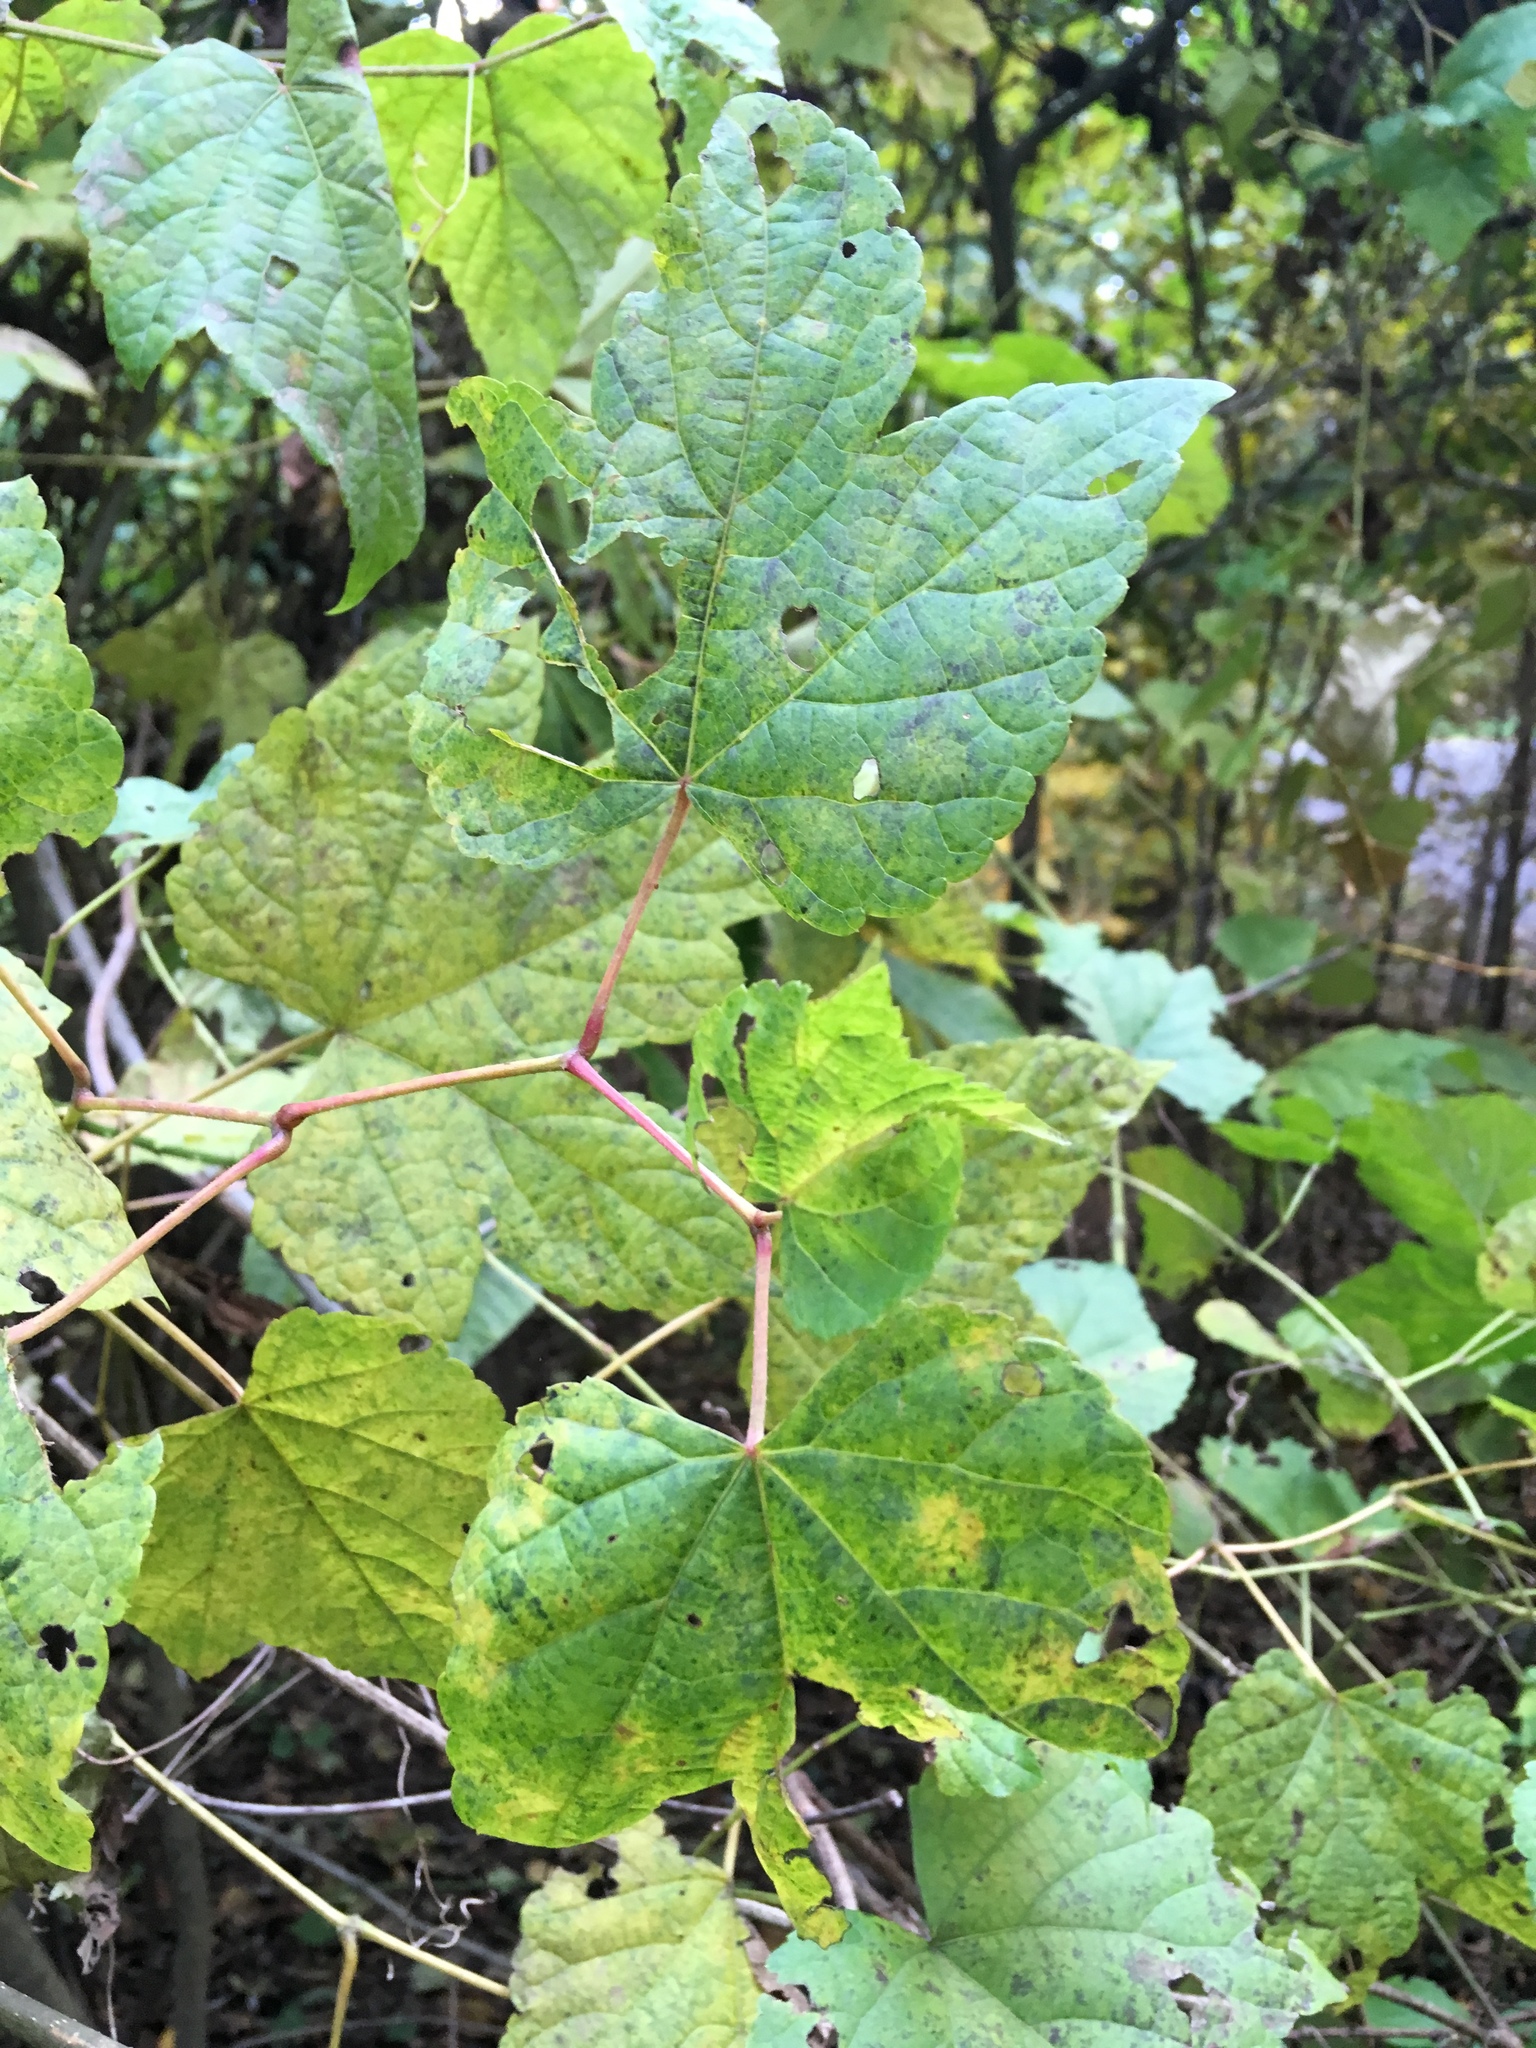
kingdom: Plantae
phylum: Tracheophyta
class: Magnoliopsida
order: Vitales
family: Vitaceae
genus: Ampelopsis
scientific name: Ampelopsis glandulosa
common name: Amur peppervine
